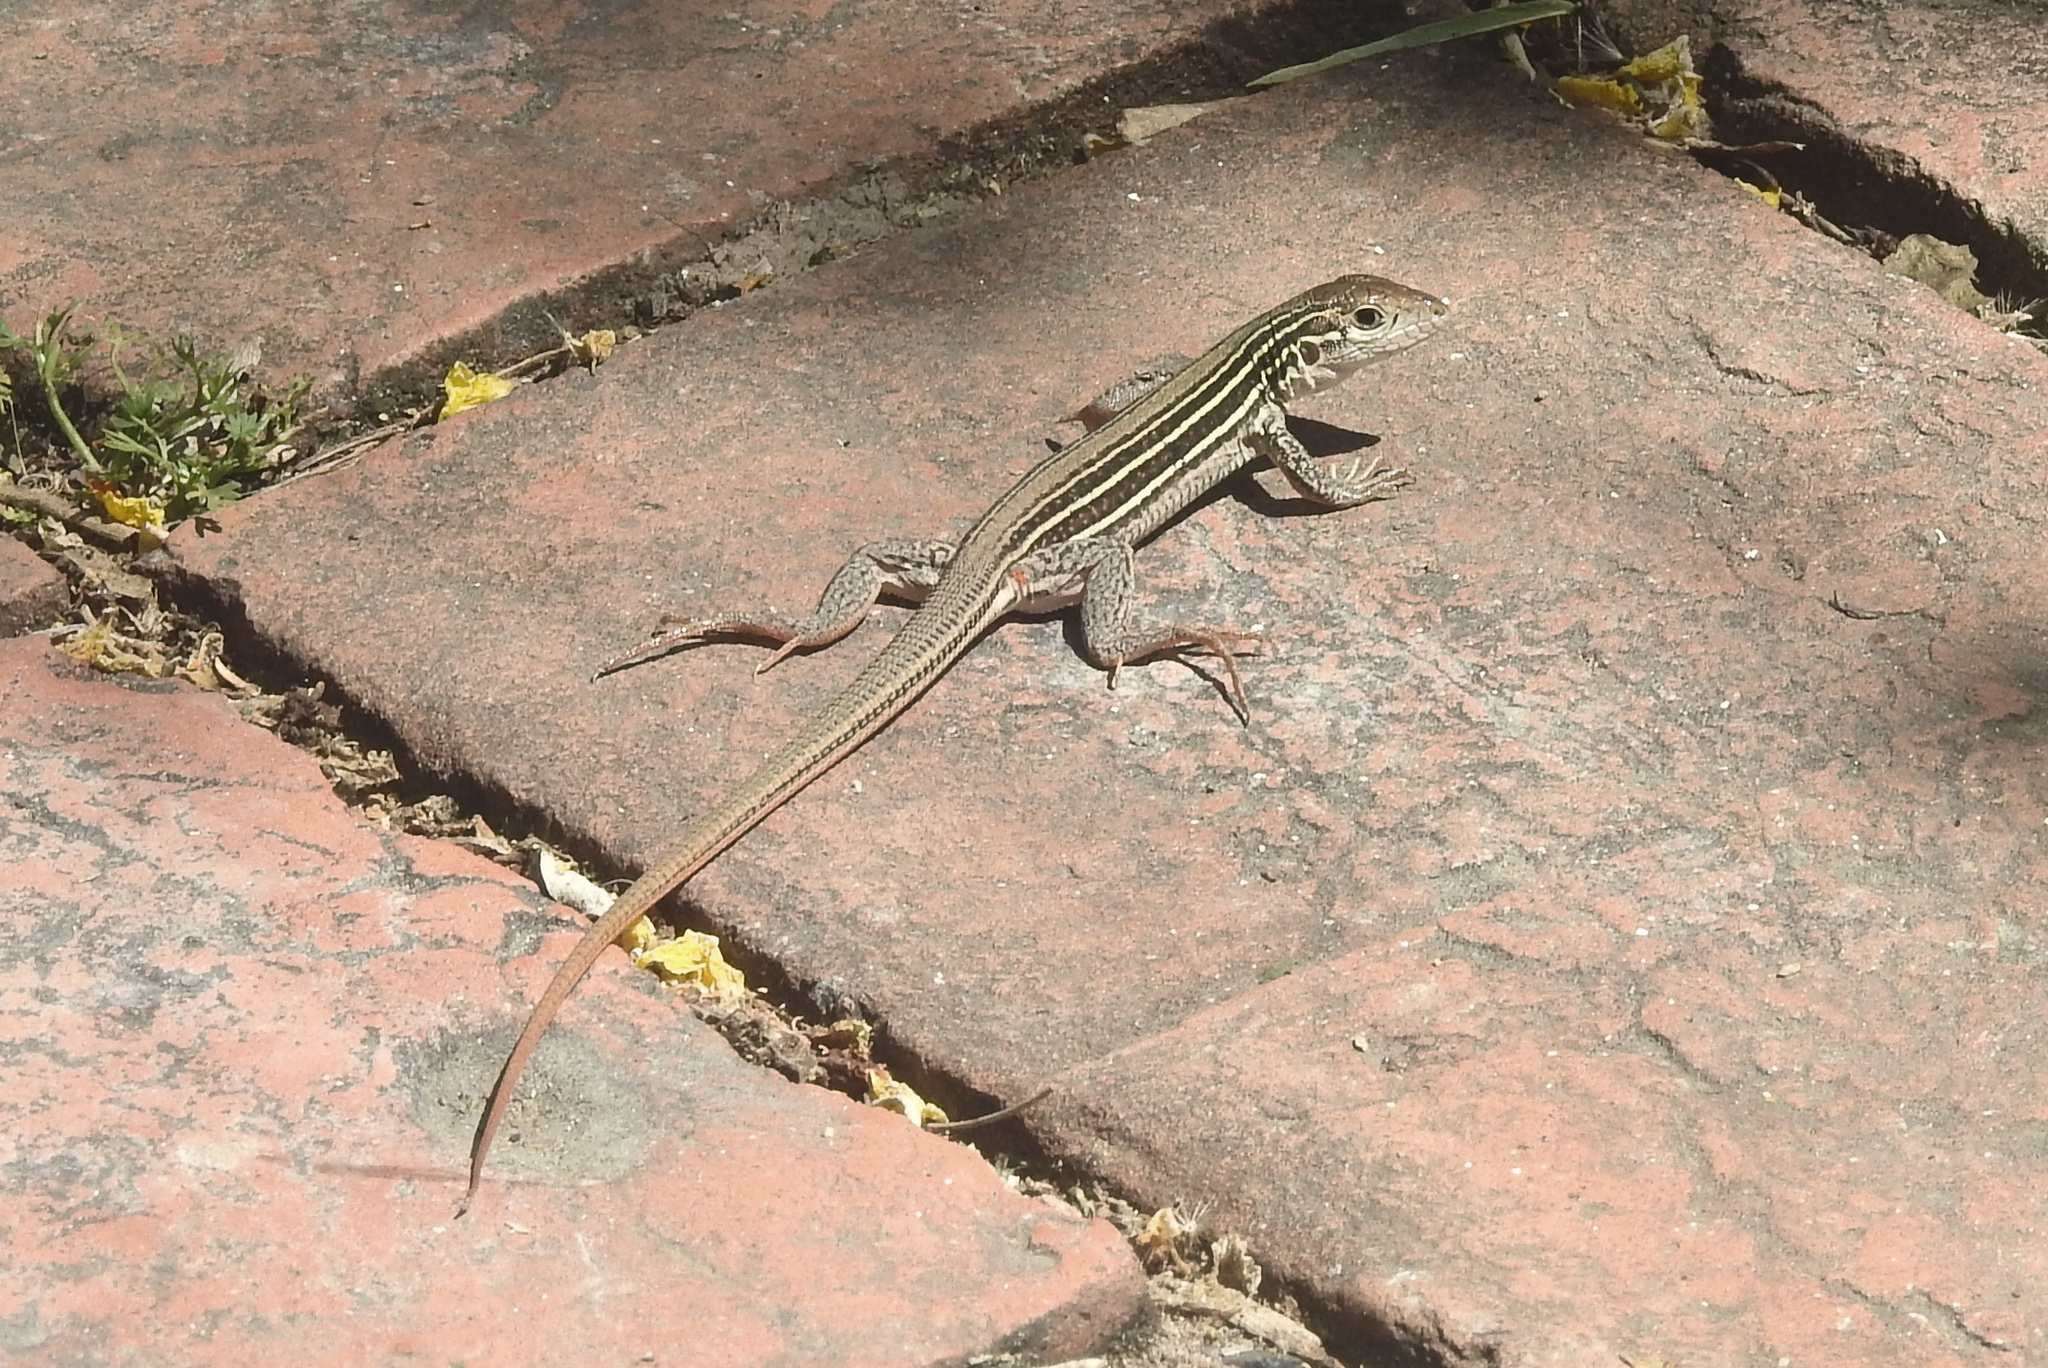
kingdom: Animalia
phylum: Chordata
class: Squamata
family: Teiidae
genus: Aspidoscelis
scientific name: Aspidoscelis gularis
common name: Eastern spotted whiptail
